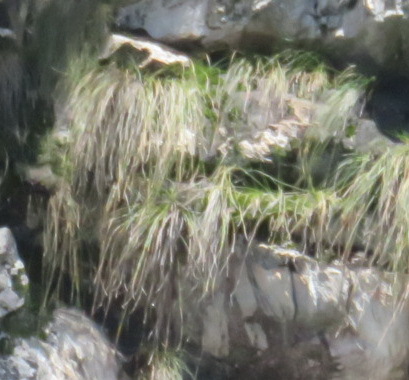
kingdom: Plantae
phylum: Tracheophyta
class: Liliopsida
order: Asparagales
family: Iridaceae
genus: Geissorhiza
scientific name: Geissorhiza outeniquensis
